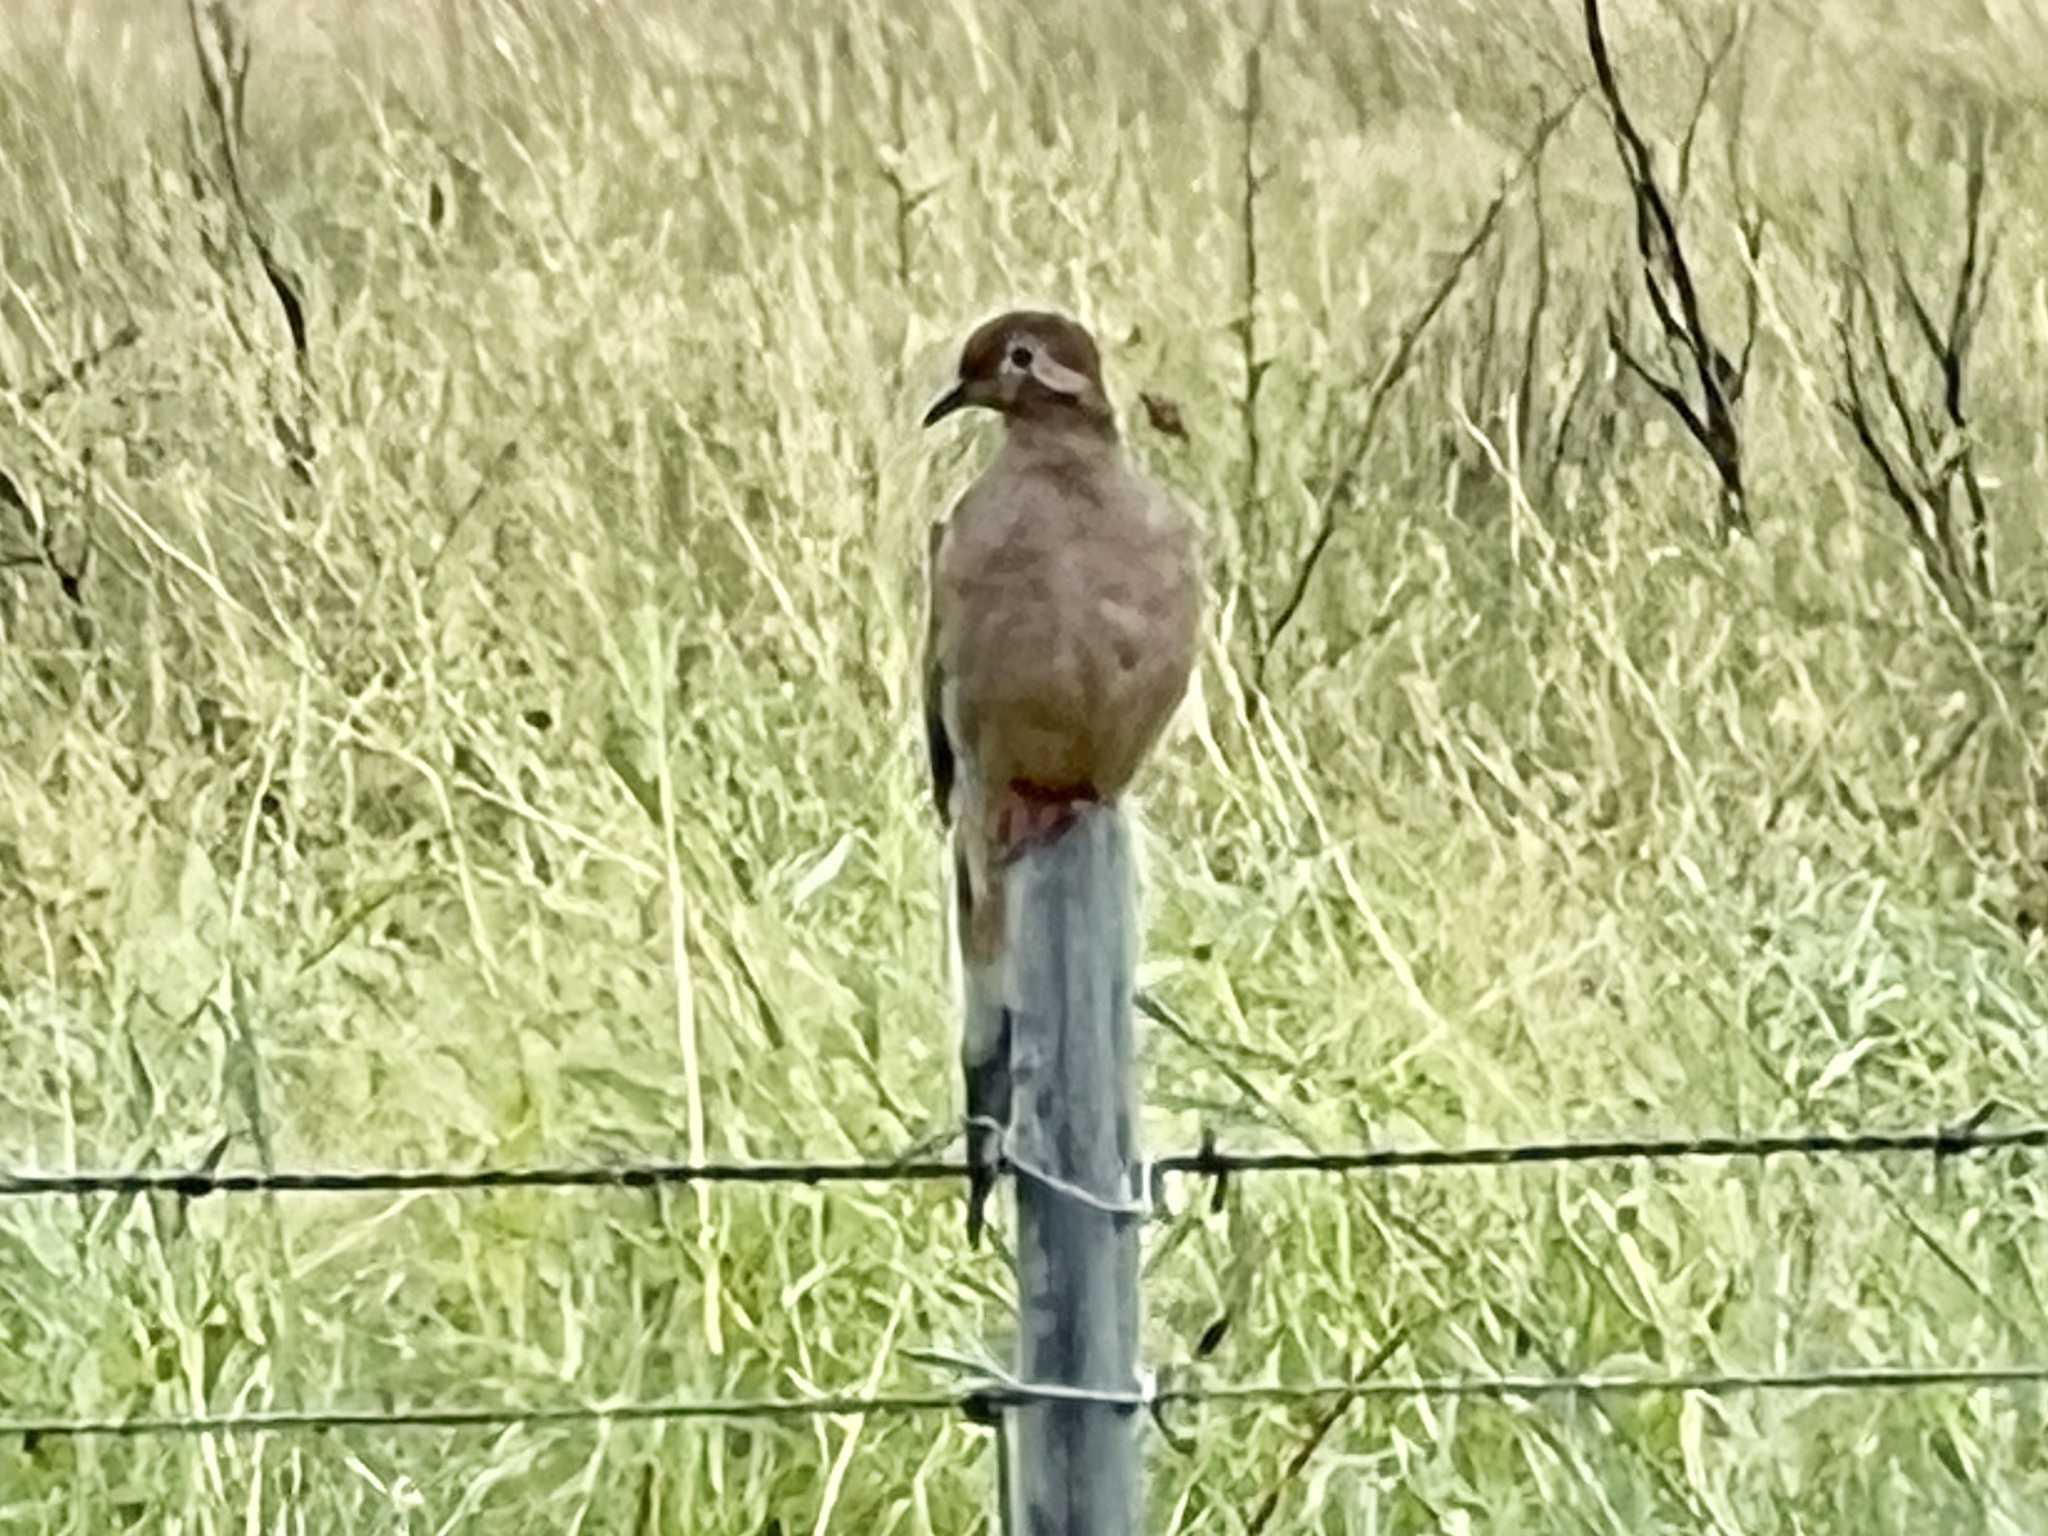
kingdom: Animalia
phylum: Chordata
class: Aves
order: Columbiformes
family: Columbidae
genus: Zenaida
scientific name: Zenaida macroura
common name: Mourning dove
